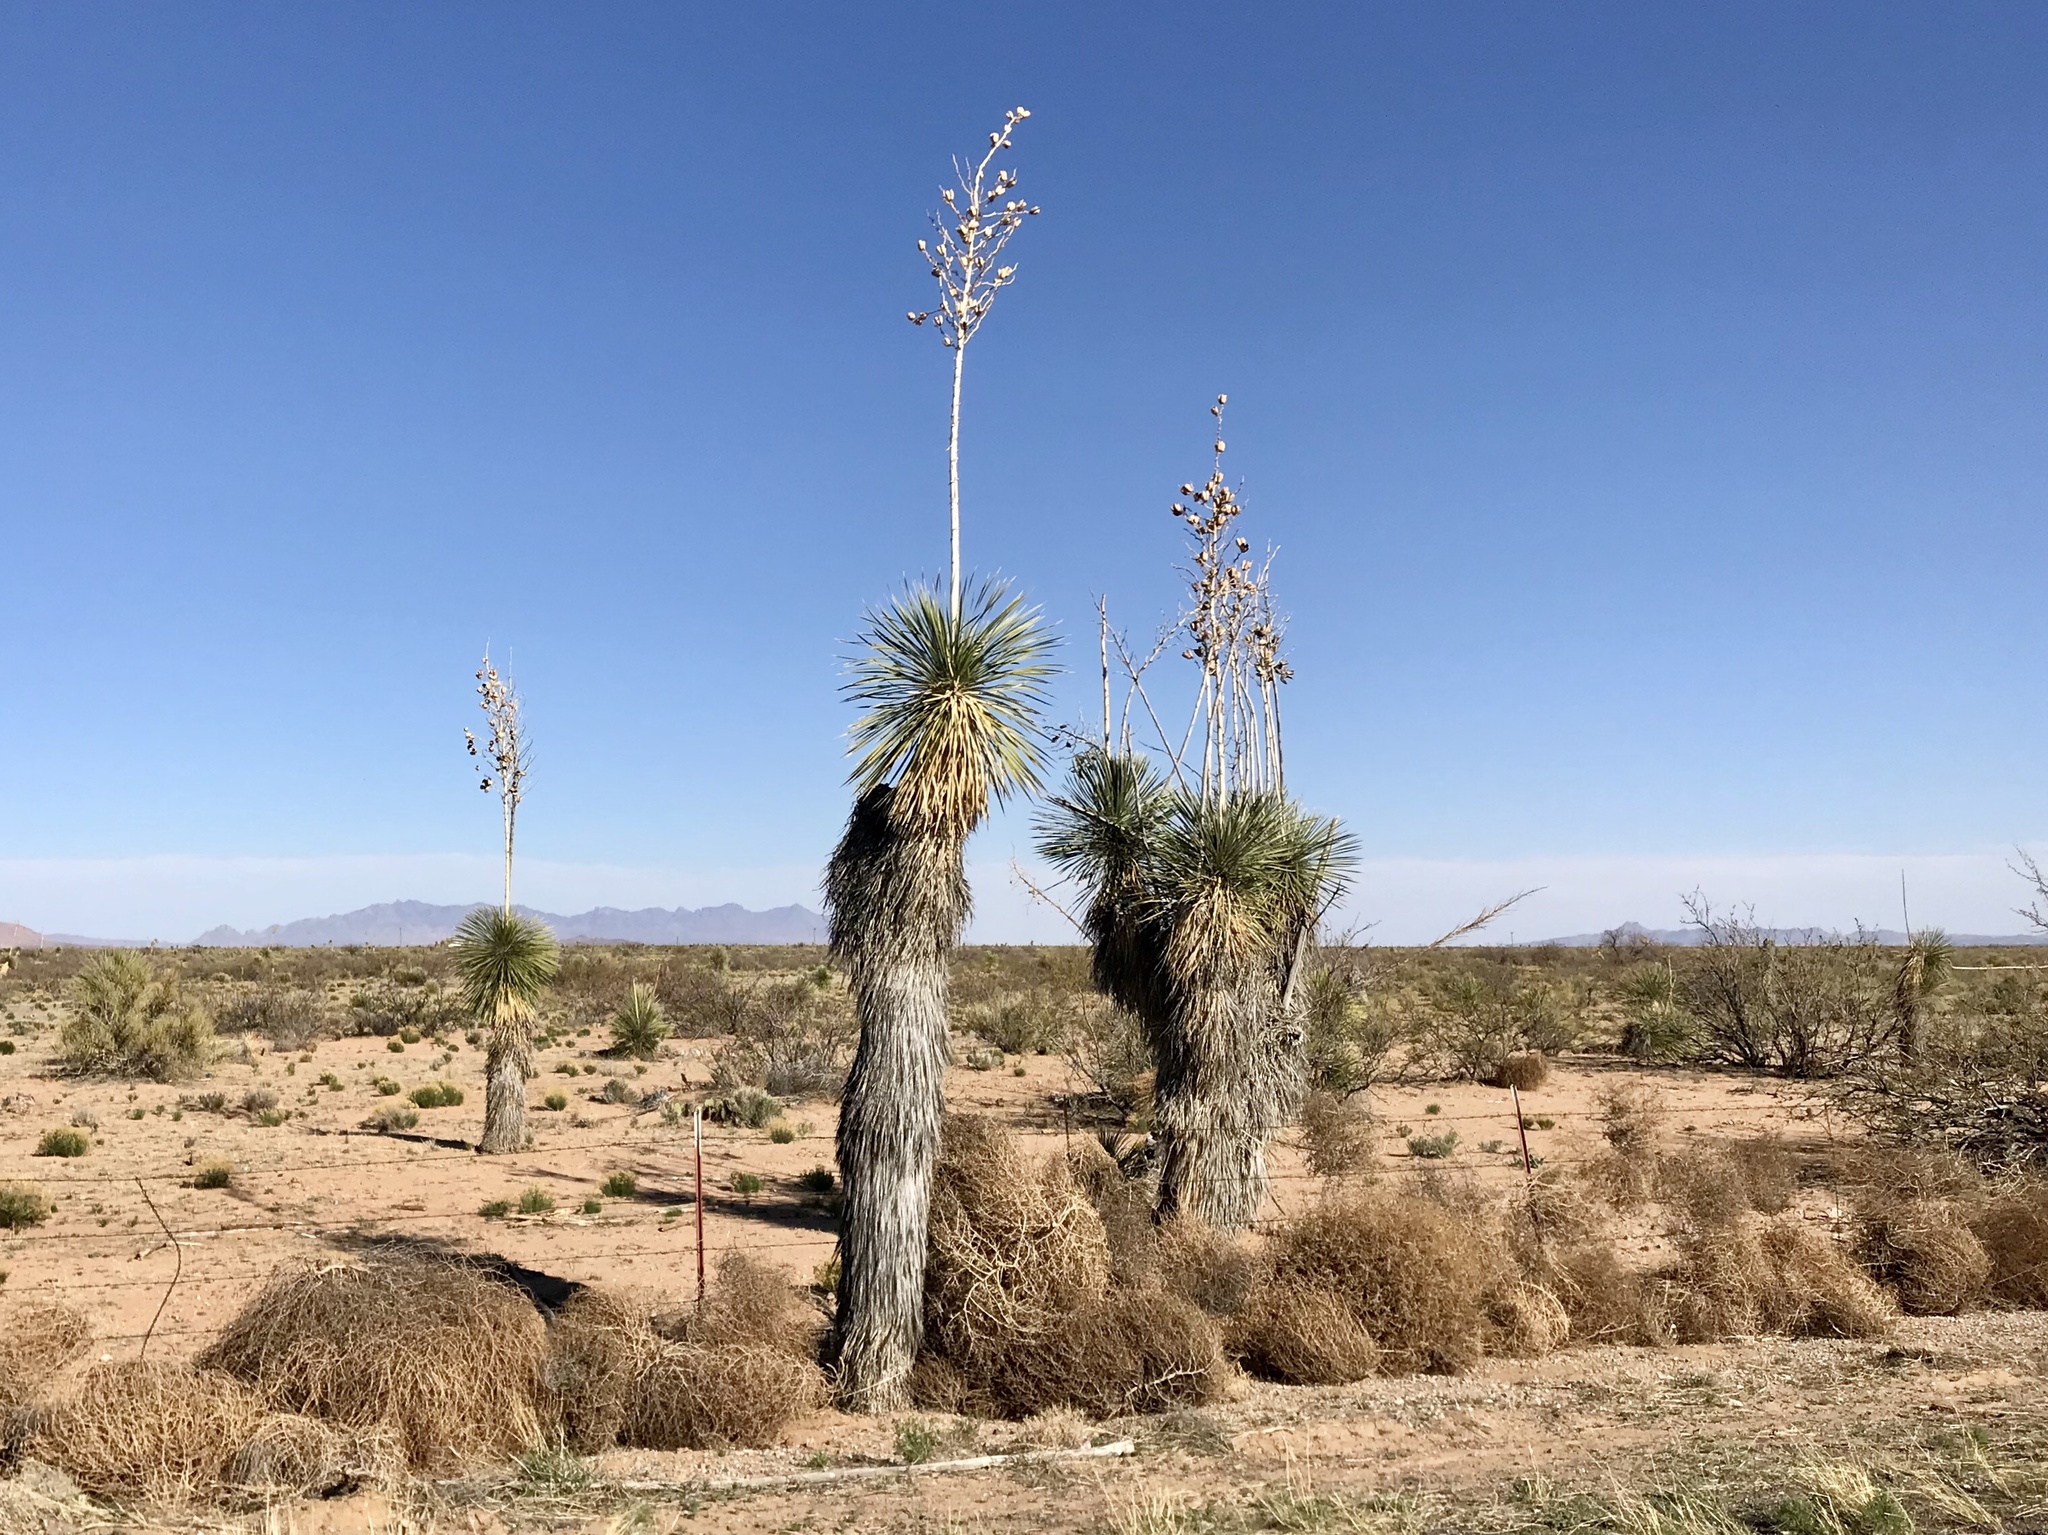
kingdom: Plantae
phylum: Tracheophyta
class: Liliopsida
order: Asparagales
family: Asparagaceae
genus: Yucca
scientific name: Yucca elata
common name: Palmella
